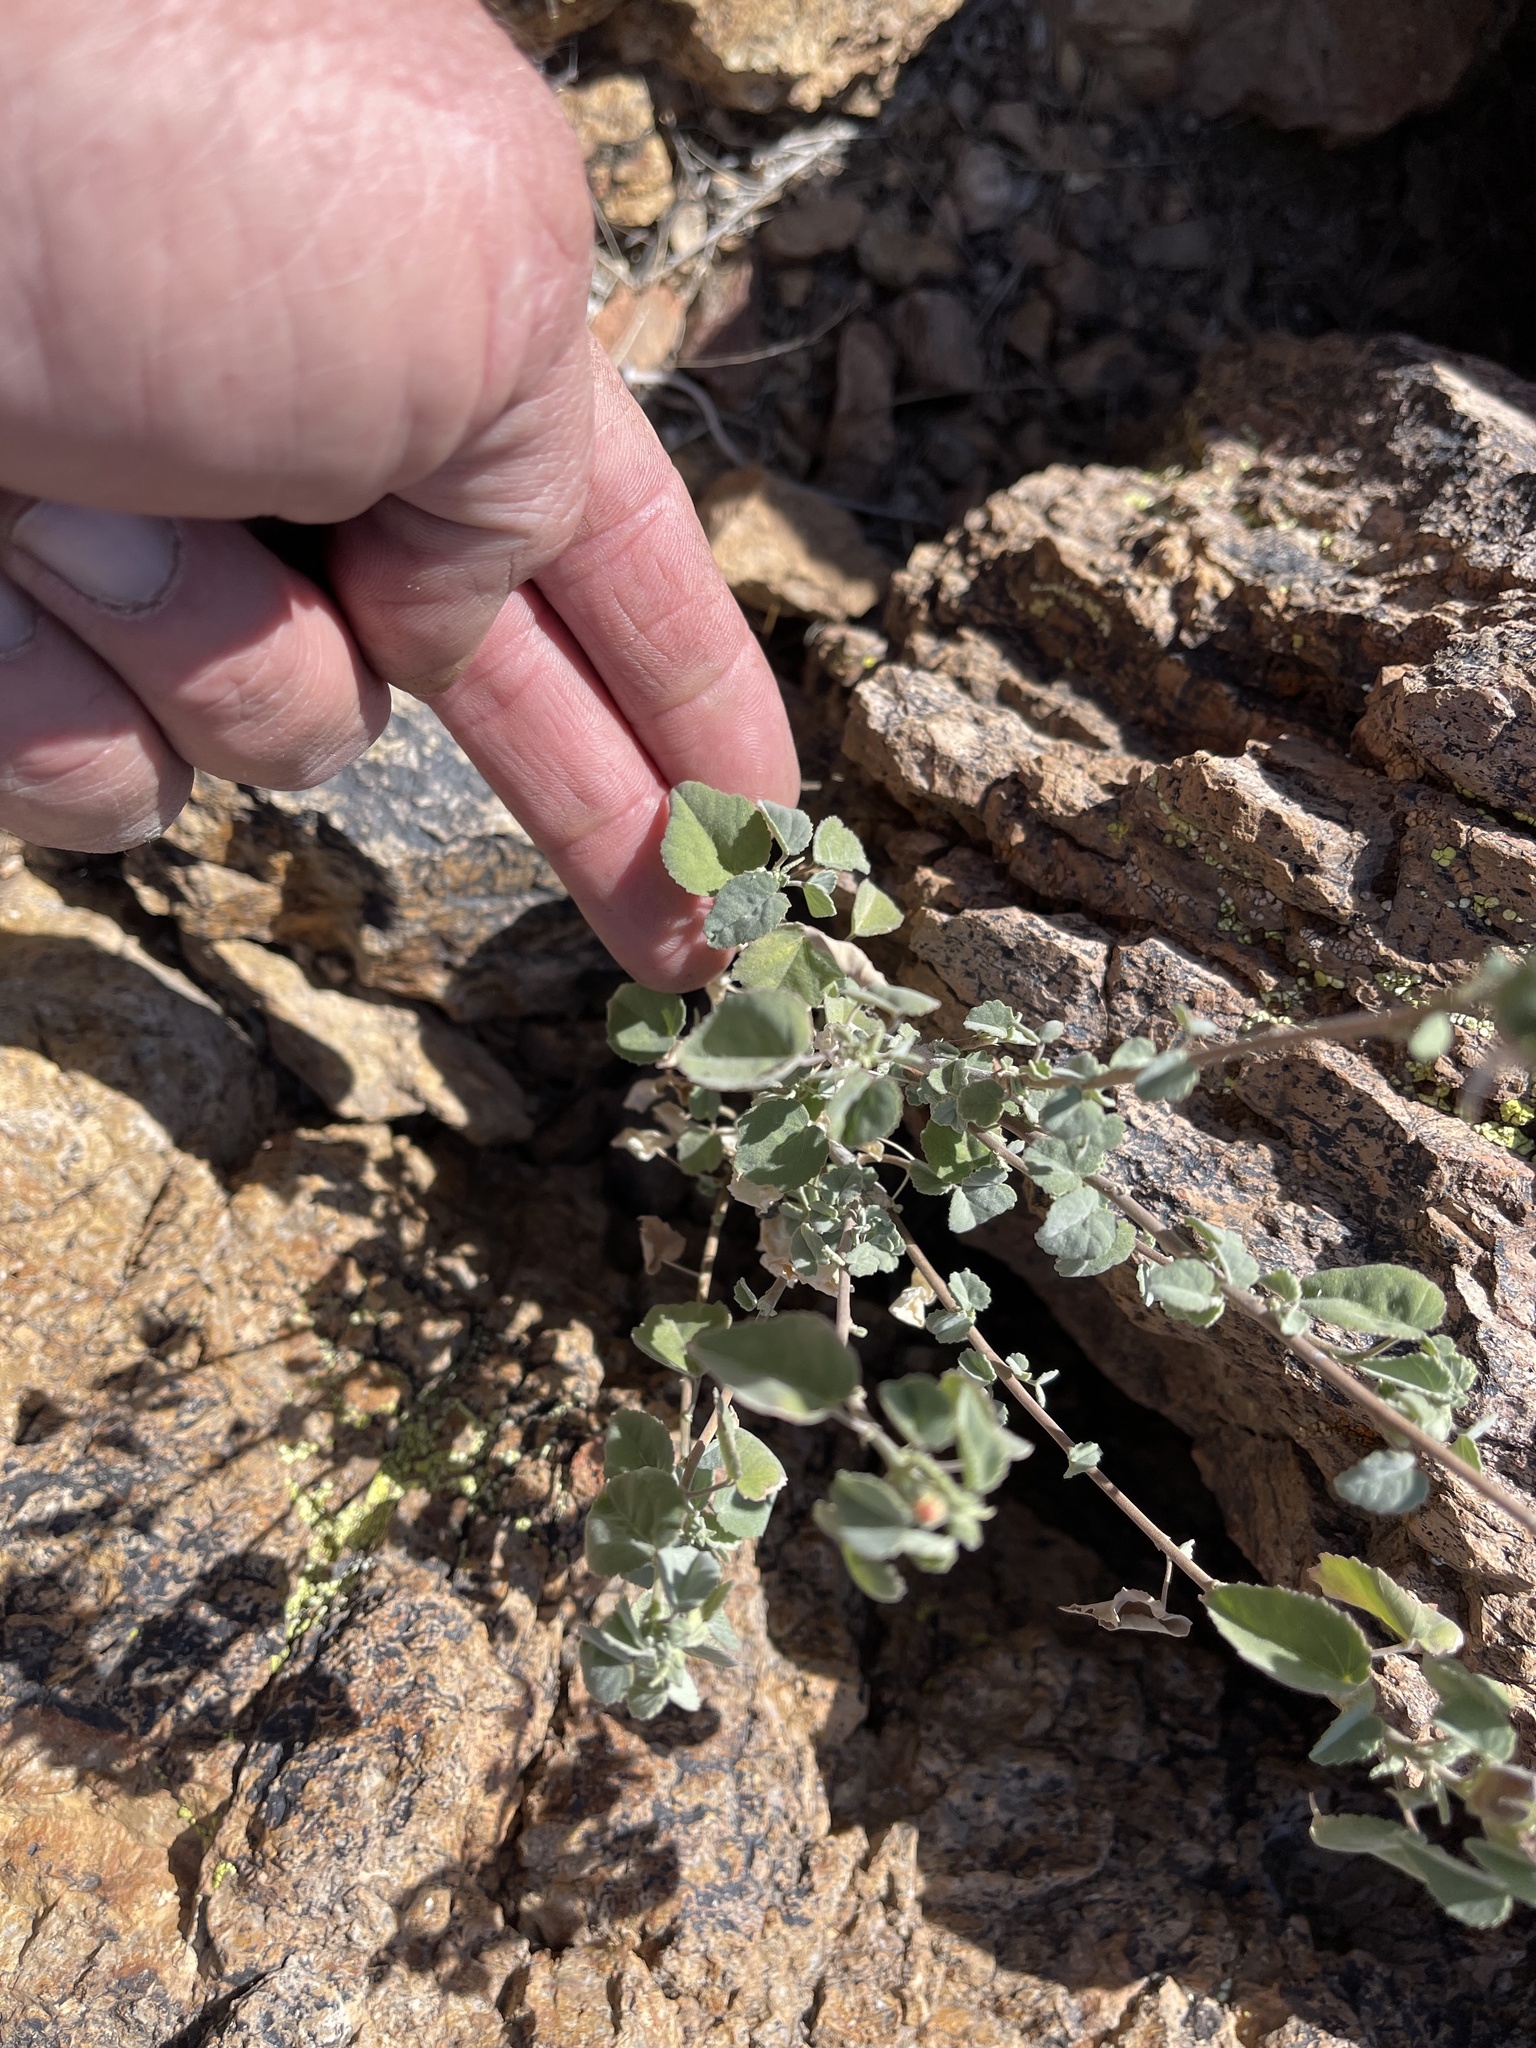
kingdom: Plantae
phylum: Tracheophyta
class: Magnoliopsida
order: Malvales
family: Malvaceae
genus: Abutilon
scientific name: Abutilon incanum
